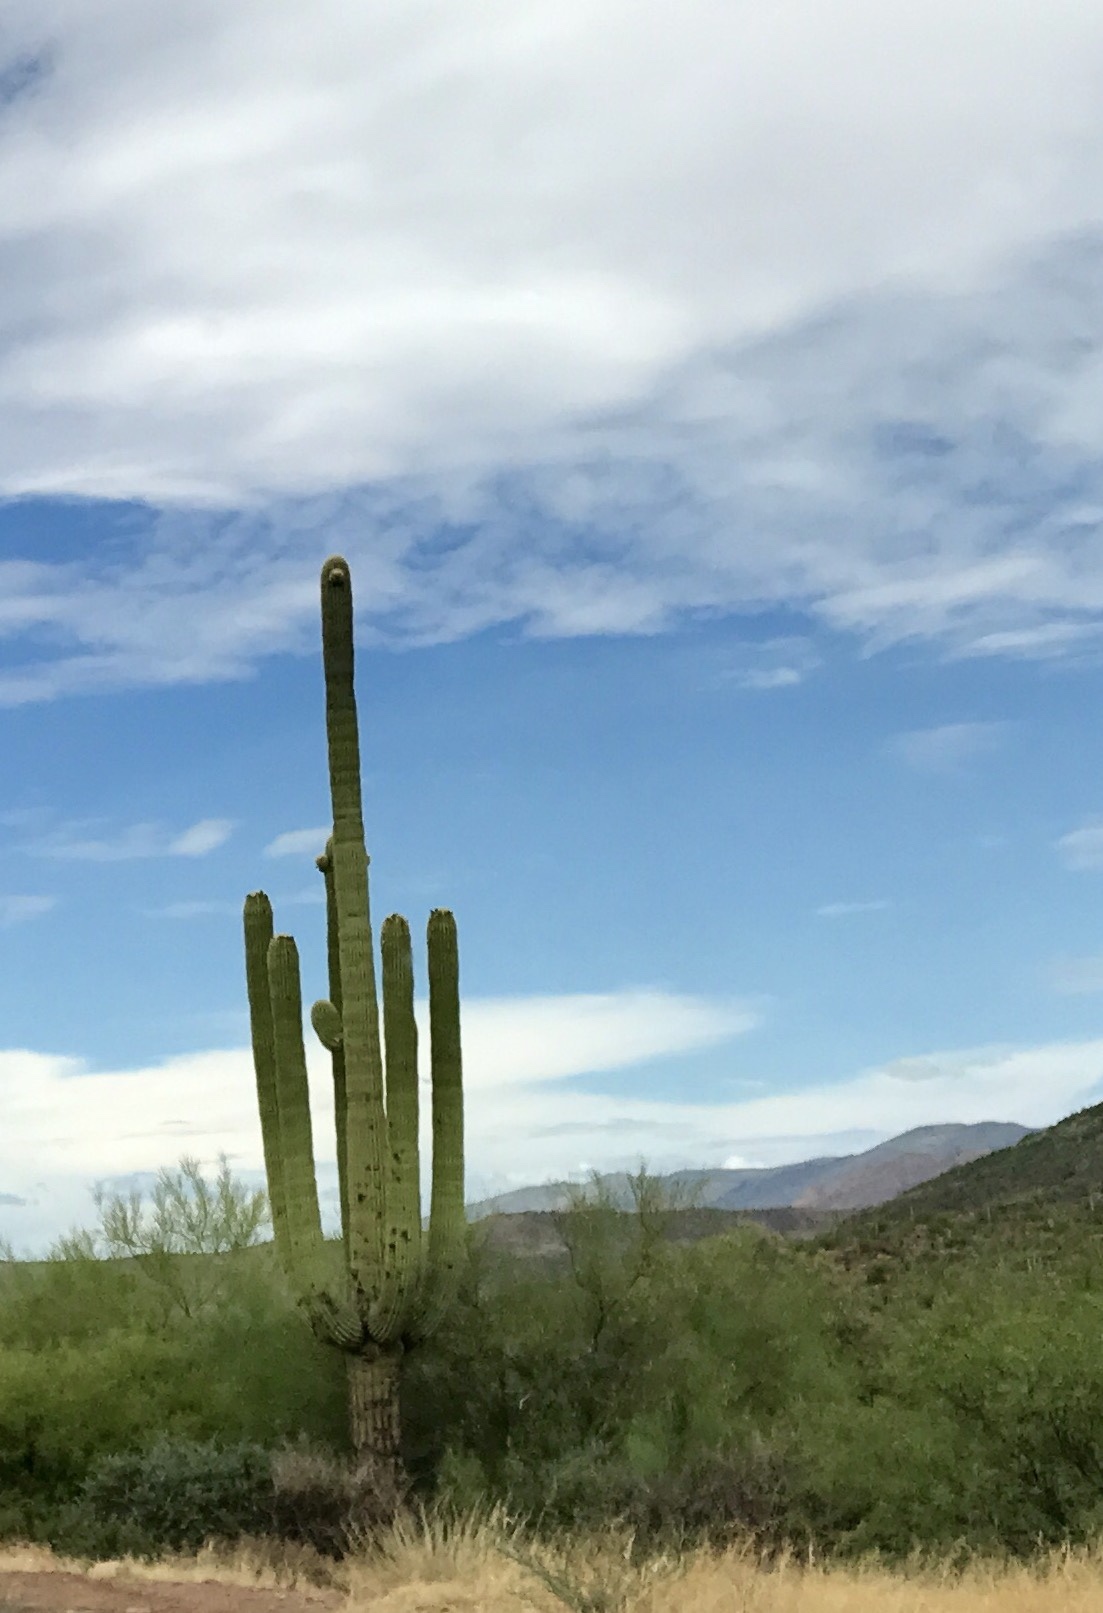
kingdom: Plantae
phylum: Tracheophyta
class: Magnoliopsida
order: Caryophyllales
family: Cactaceae
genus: Carnegiea
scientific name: Carnegiea gigantea
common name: Saguaro
